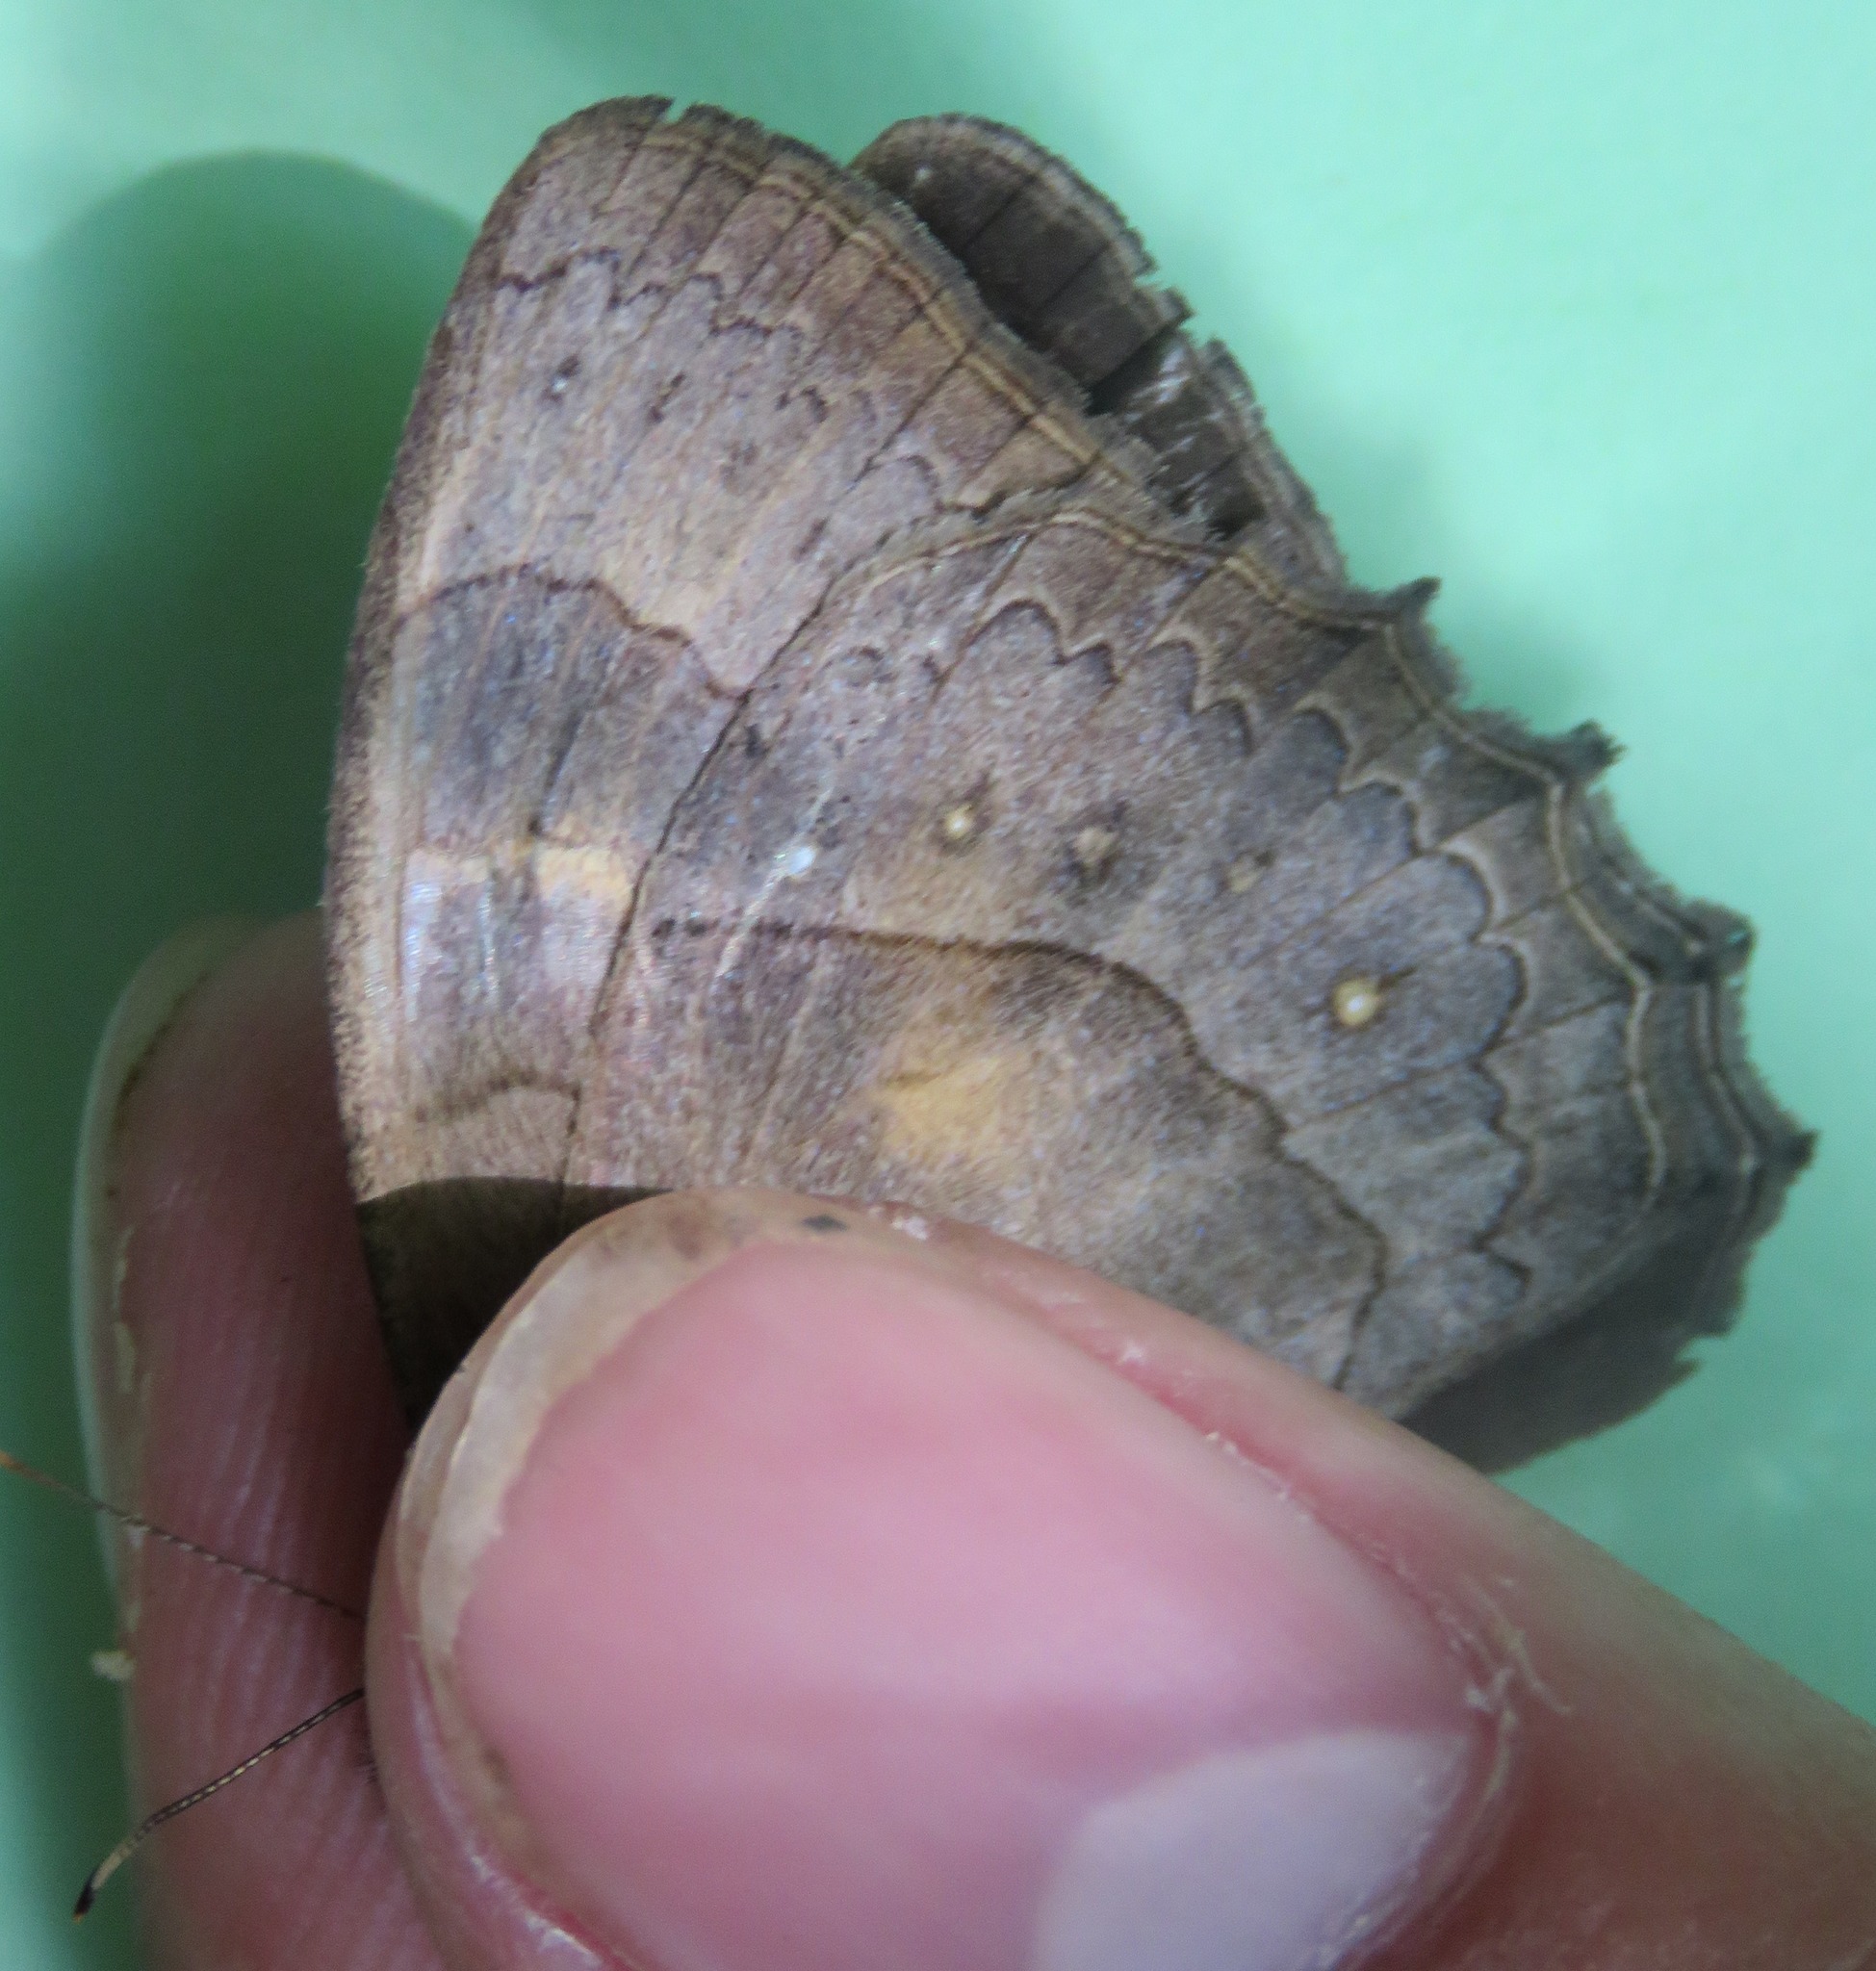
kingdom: Animalia
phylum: Arthropoda
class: Insecta
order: Lepidoptera
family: Nymphalidae
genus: Taygetina
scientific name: Taygetina kerea
